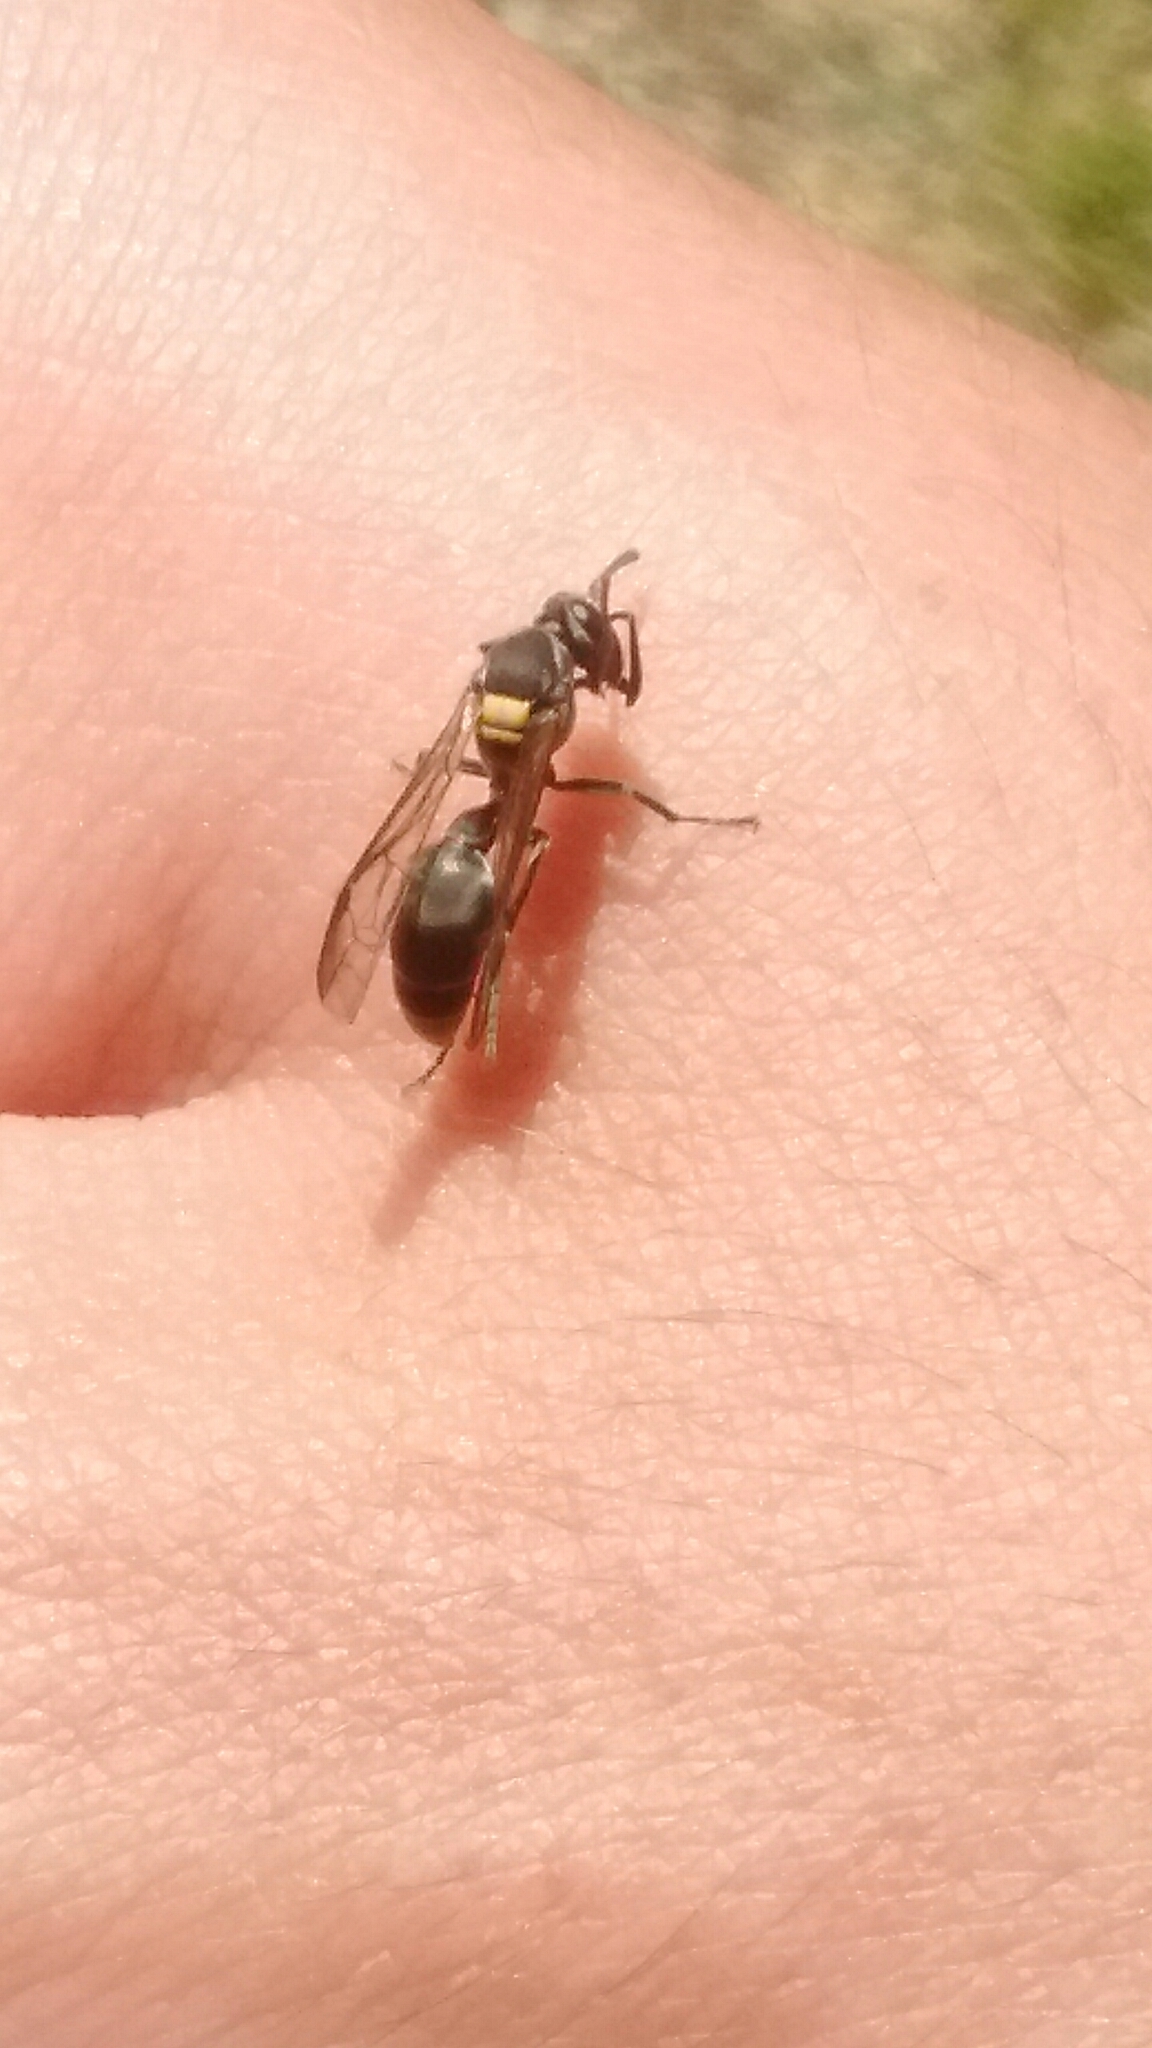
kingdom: Animalia
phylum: Arthropoda
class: Insecta
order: Hymenoptera
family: Eumenidae
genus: Polybia
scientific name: Polybia scutellaris
